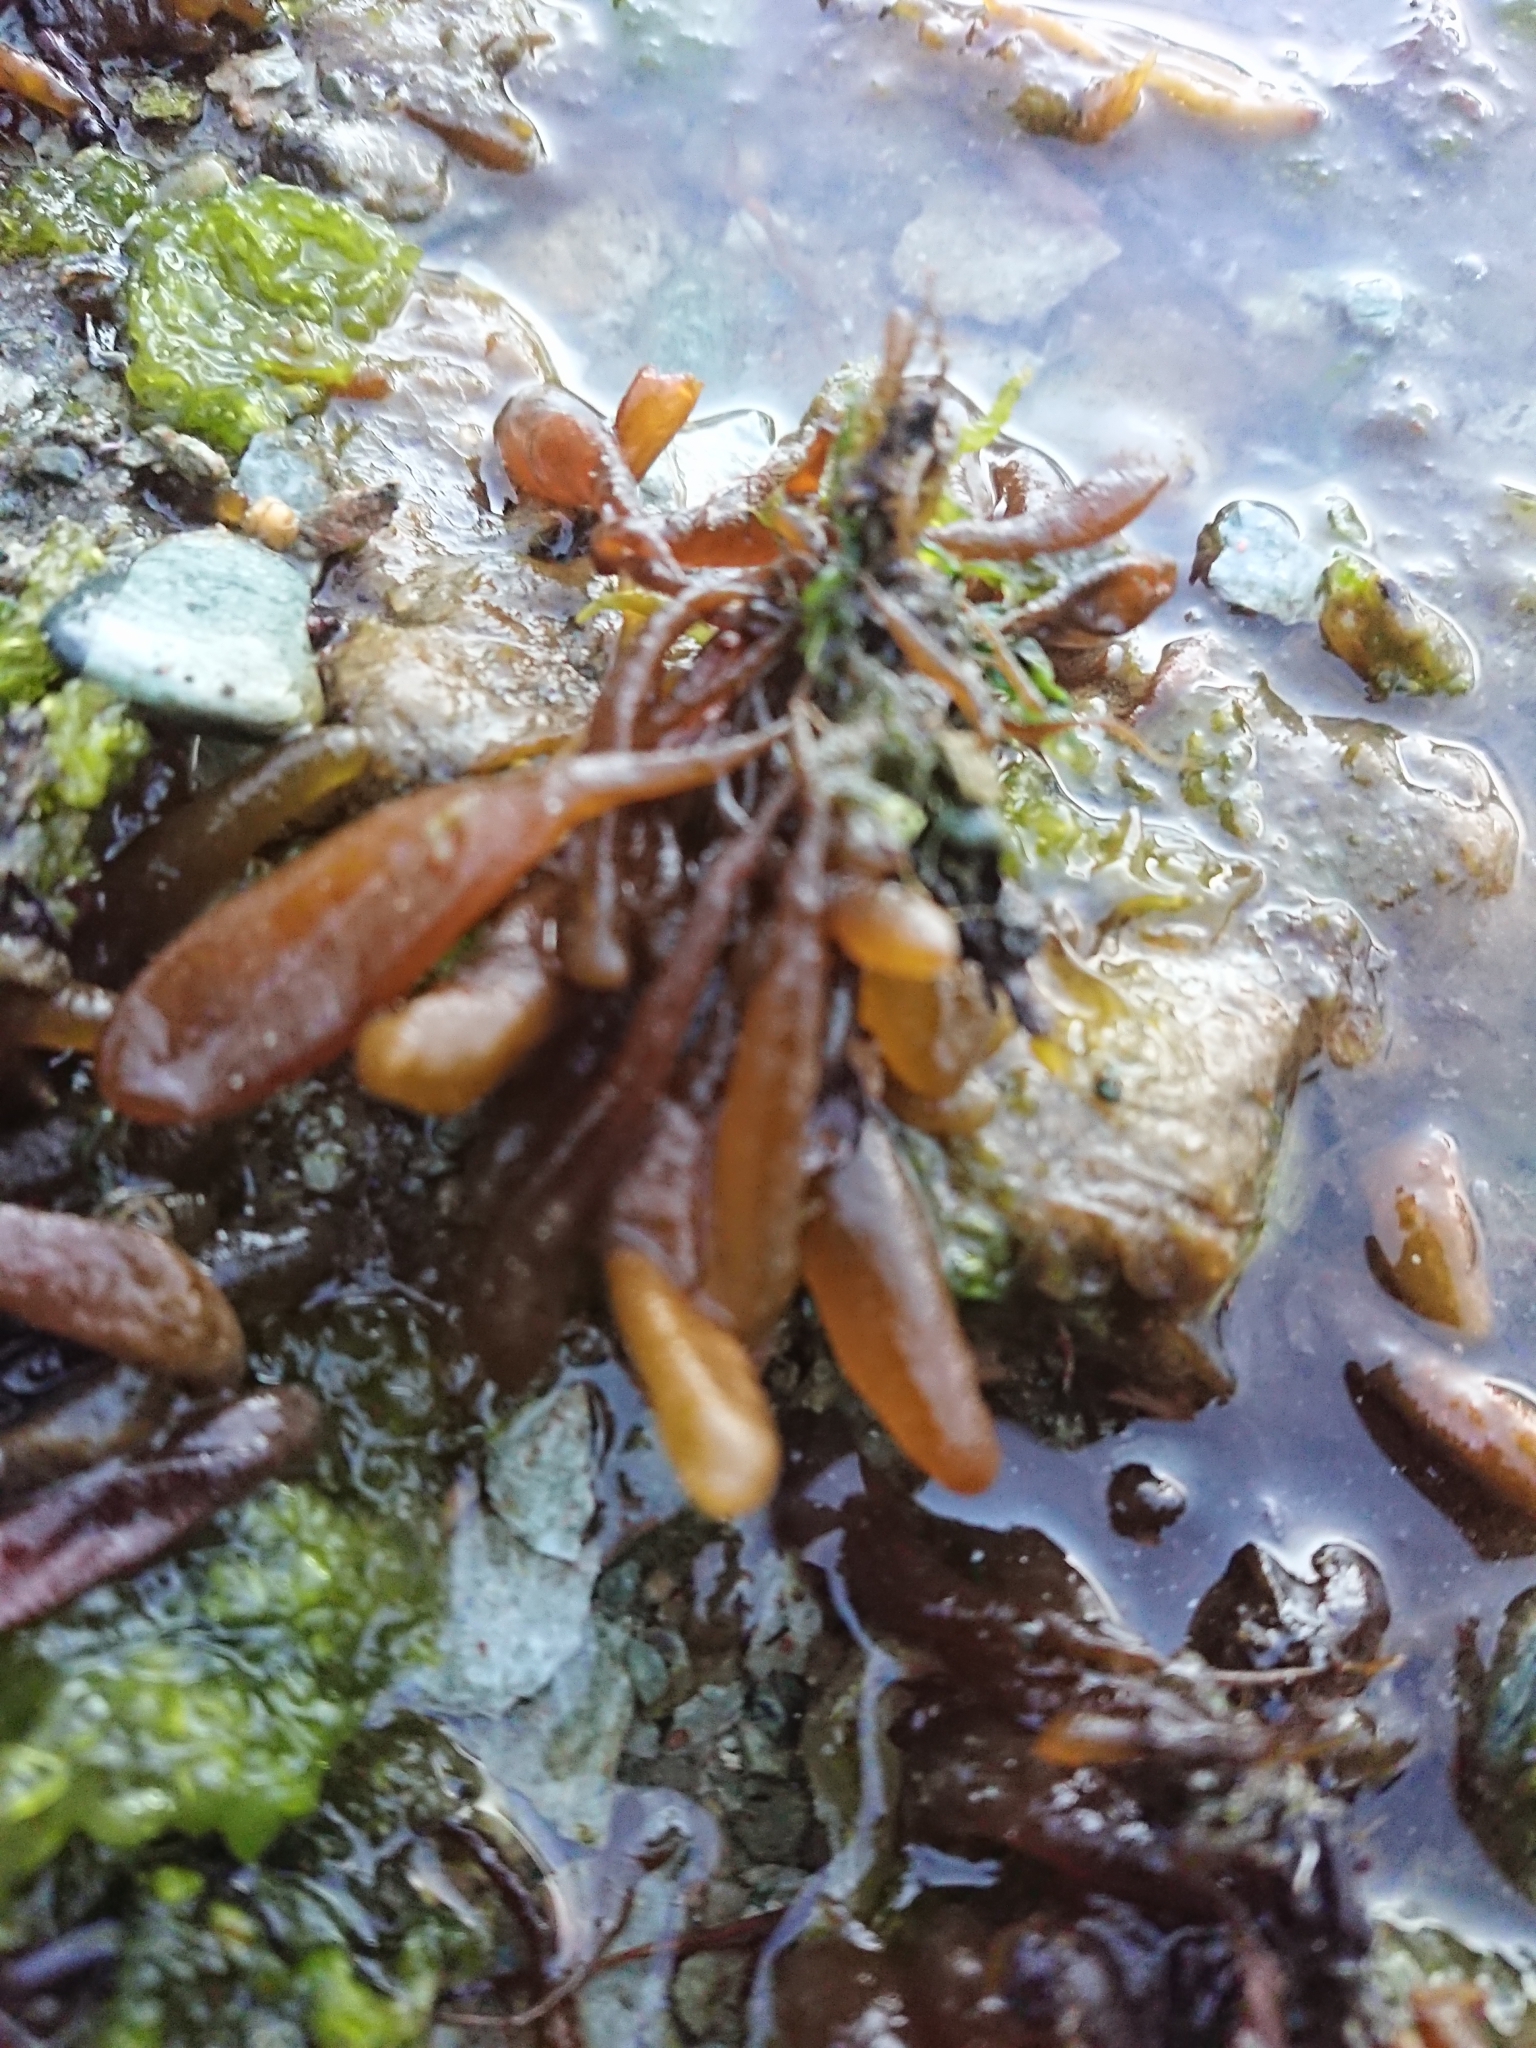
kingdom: Chromista
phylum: Ochrophyta
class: Phaeophyceae
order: Ectocarpales
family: Adenocystaceae
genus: Adenocystis
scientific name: Adenocystis utricularis
